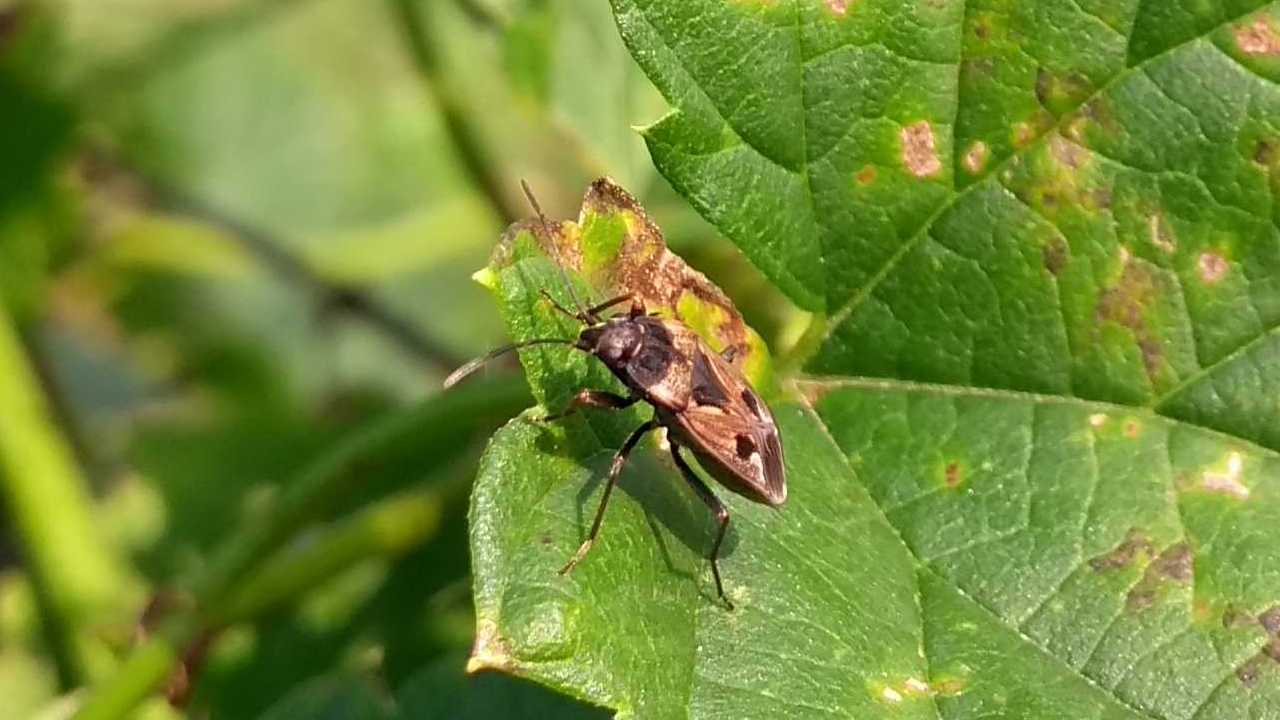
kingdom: Animalia
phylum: Arthropoda
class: Insecta
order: Hemiptera
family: Rhyparochromidae
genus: Rhyparochromus
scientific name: Rhyparochromus vulgaris
